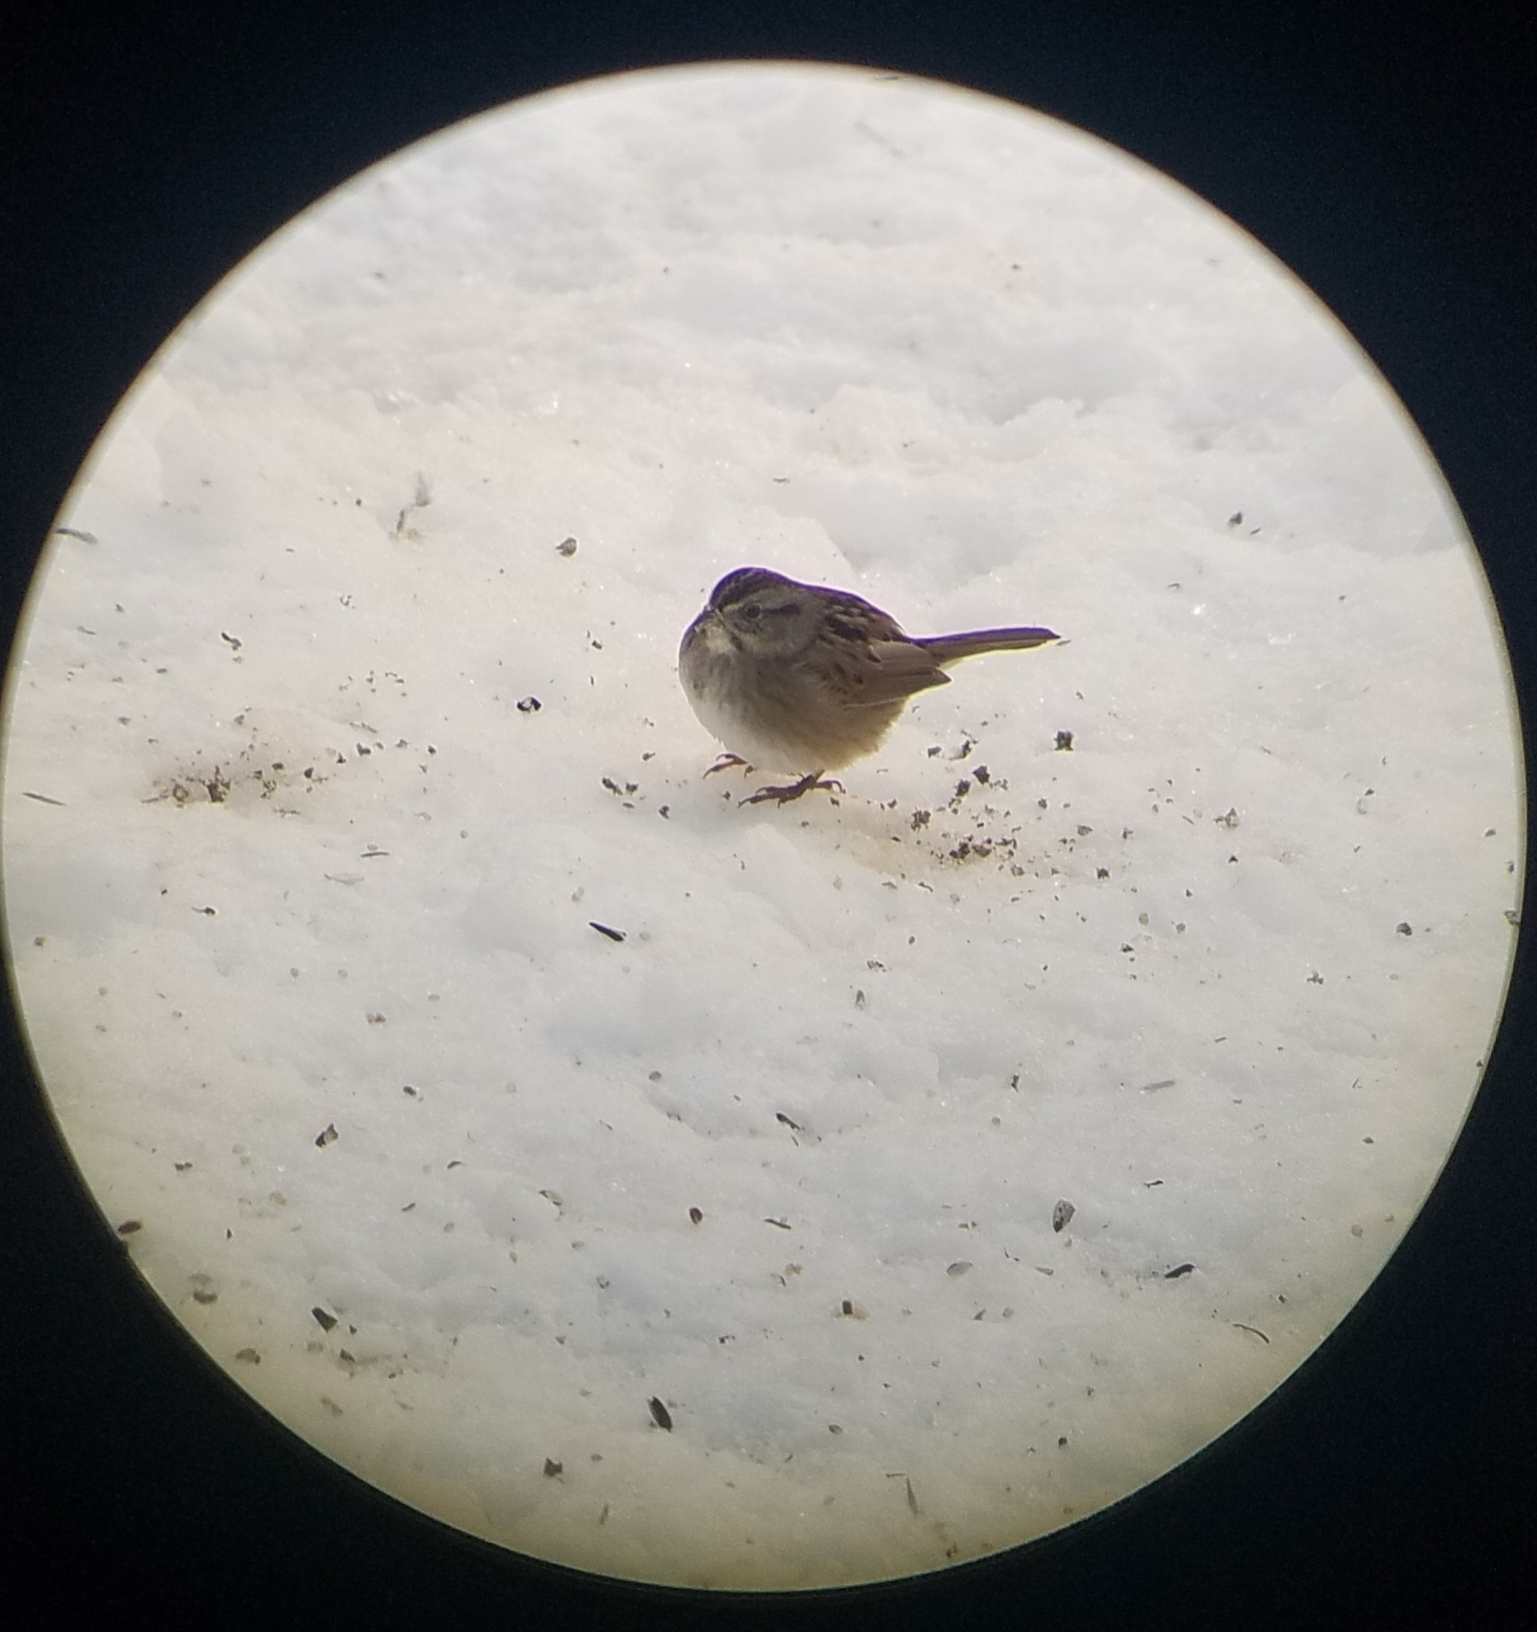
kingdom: Animalia
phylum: Chordata
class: Aves
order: Passeriformes
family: Passerellidae
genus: Melospiza
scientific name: Melospiza georgiana
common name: Swamp sparrow
